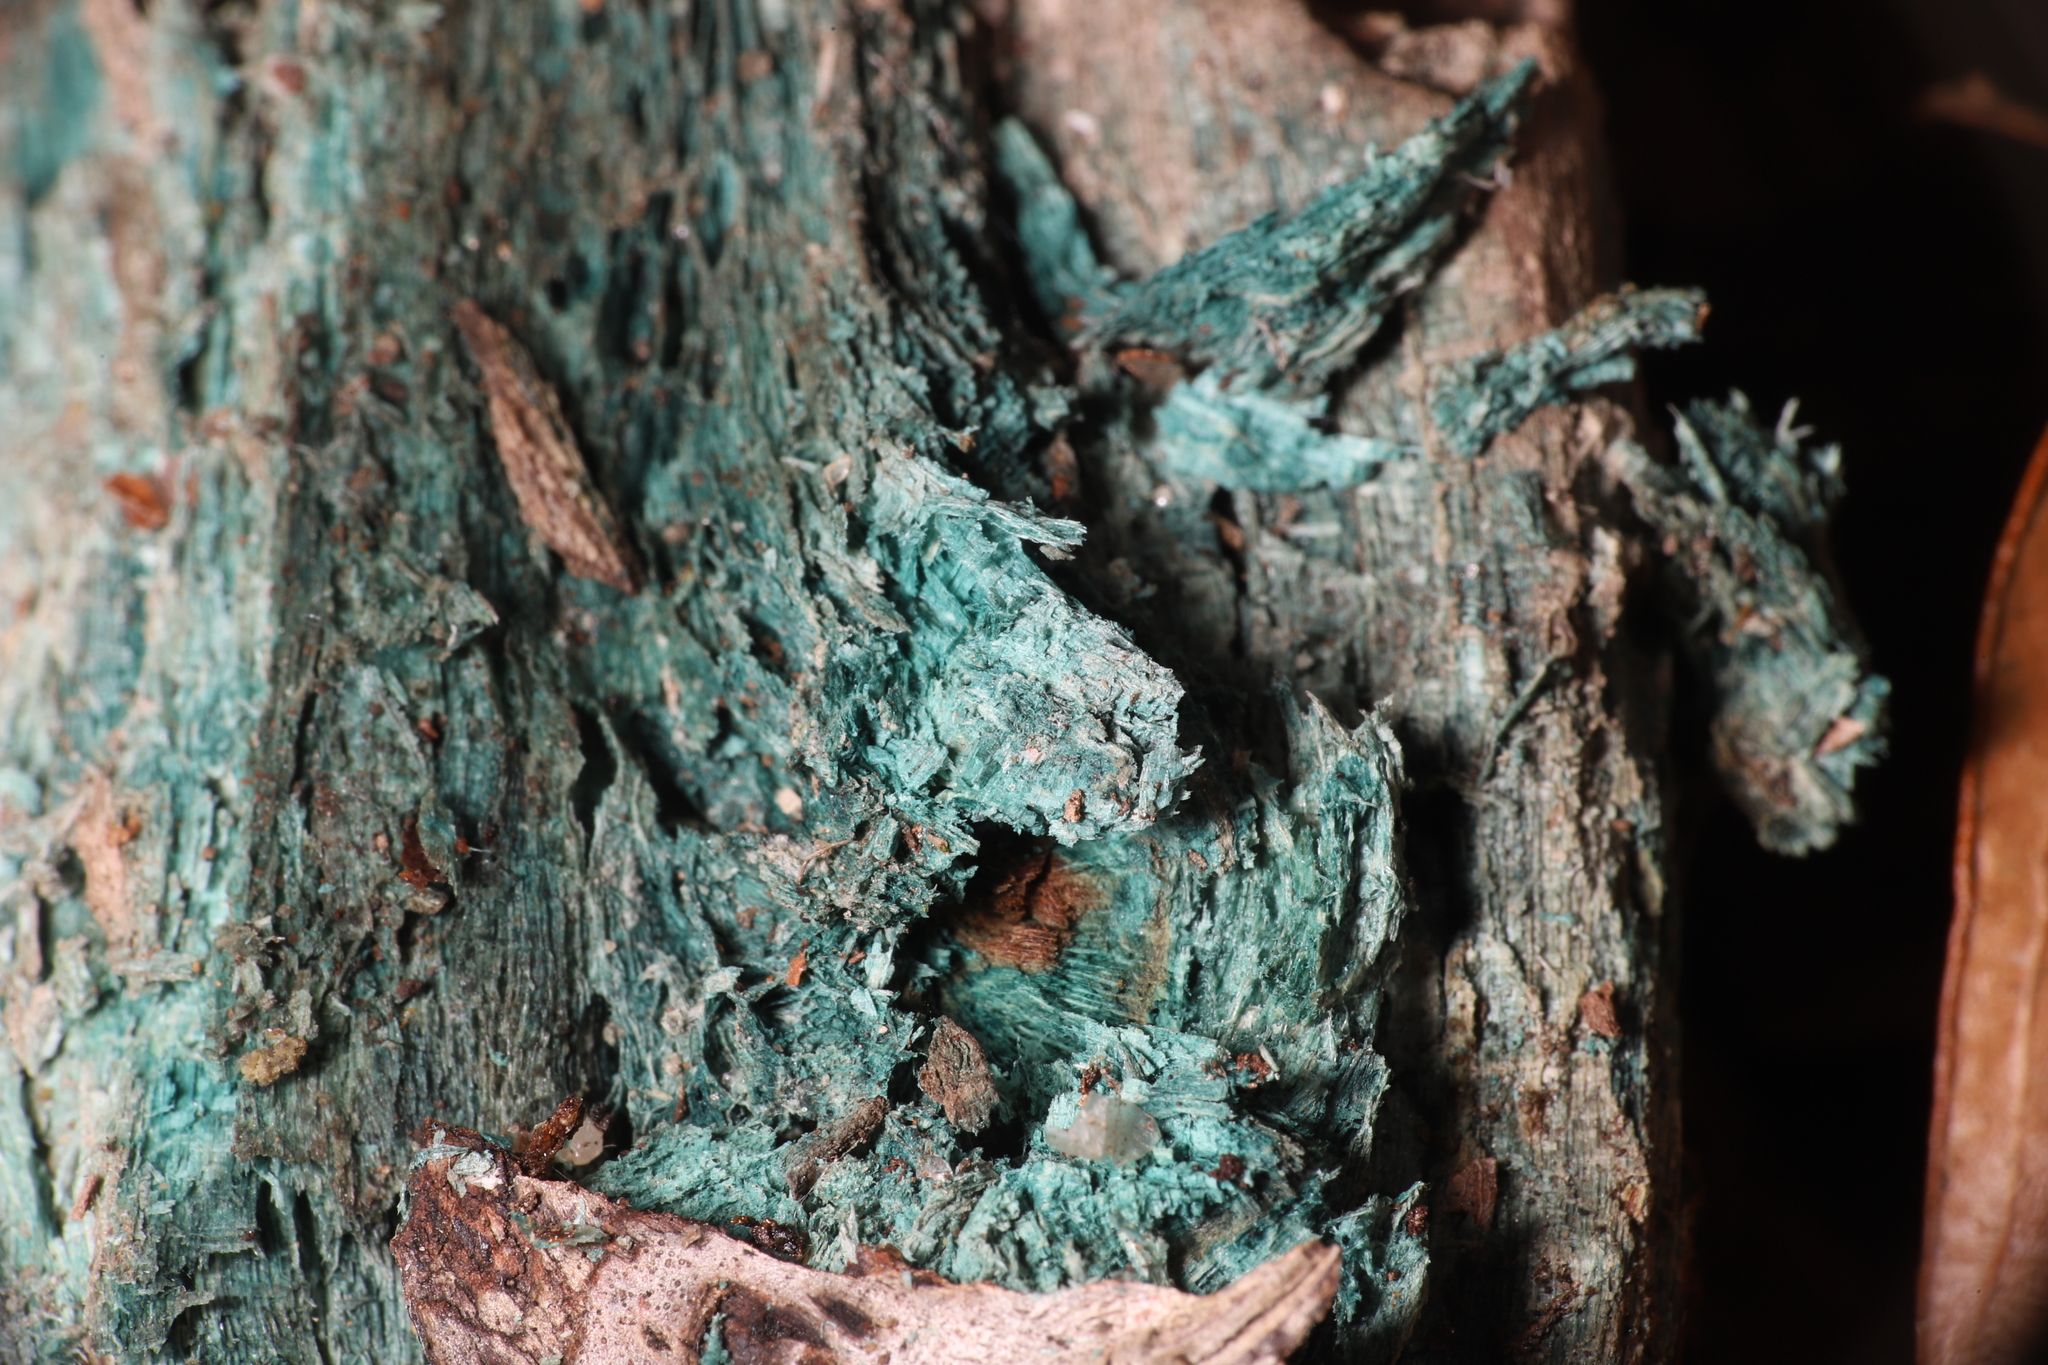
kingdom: Fungi
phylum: Ascomycota
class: Leotiomycetes
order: Helotiales
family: Chlorociboriaceae
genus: Chlorociboria
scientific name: Chlorociboria
